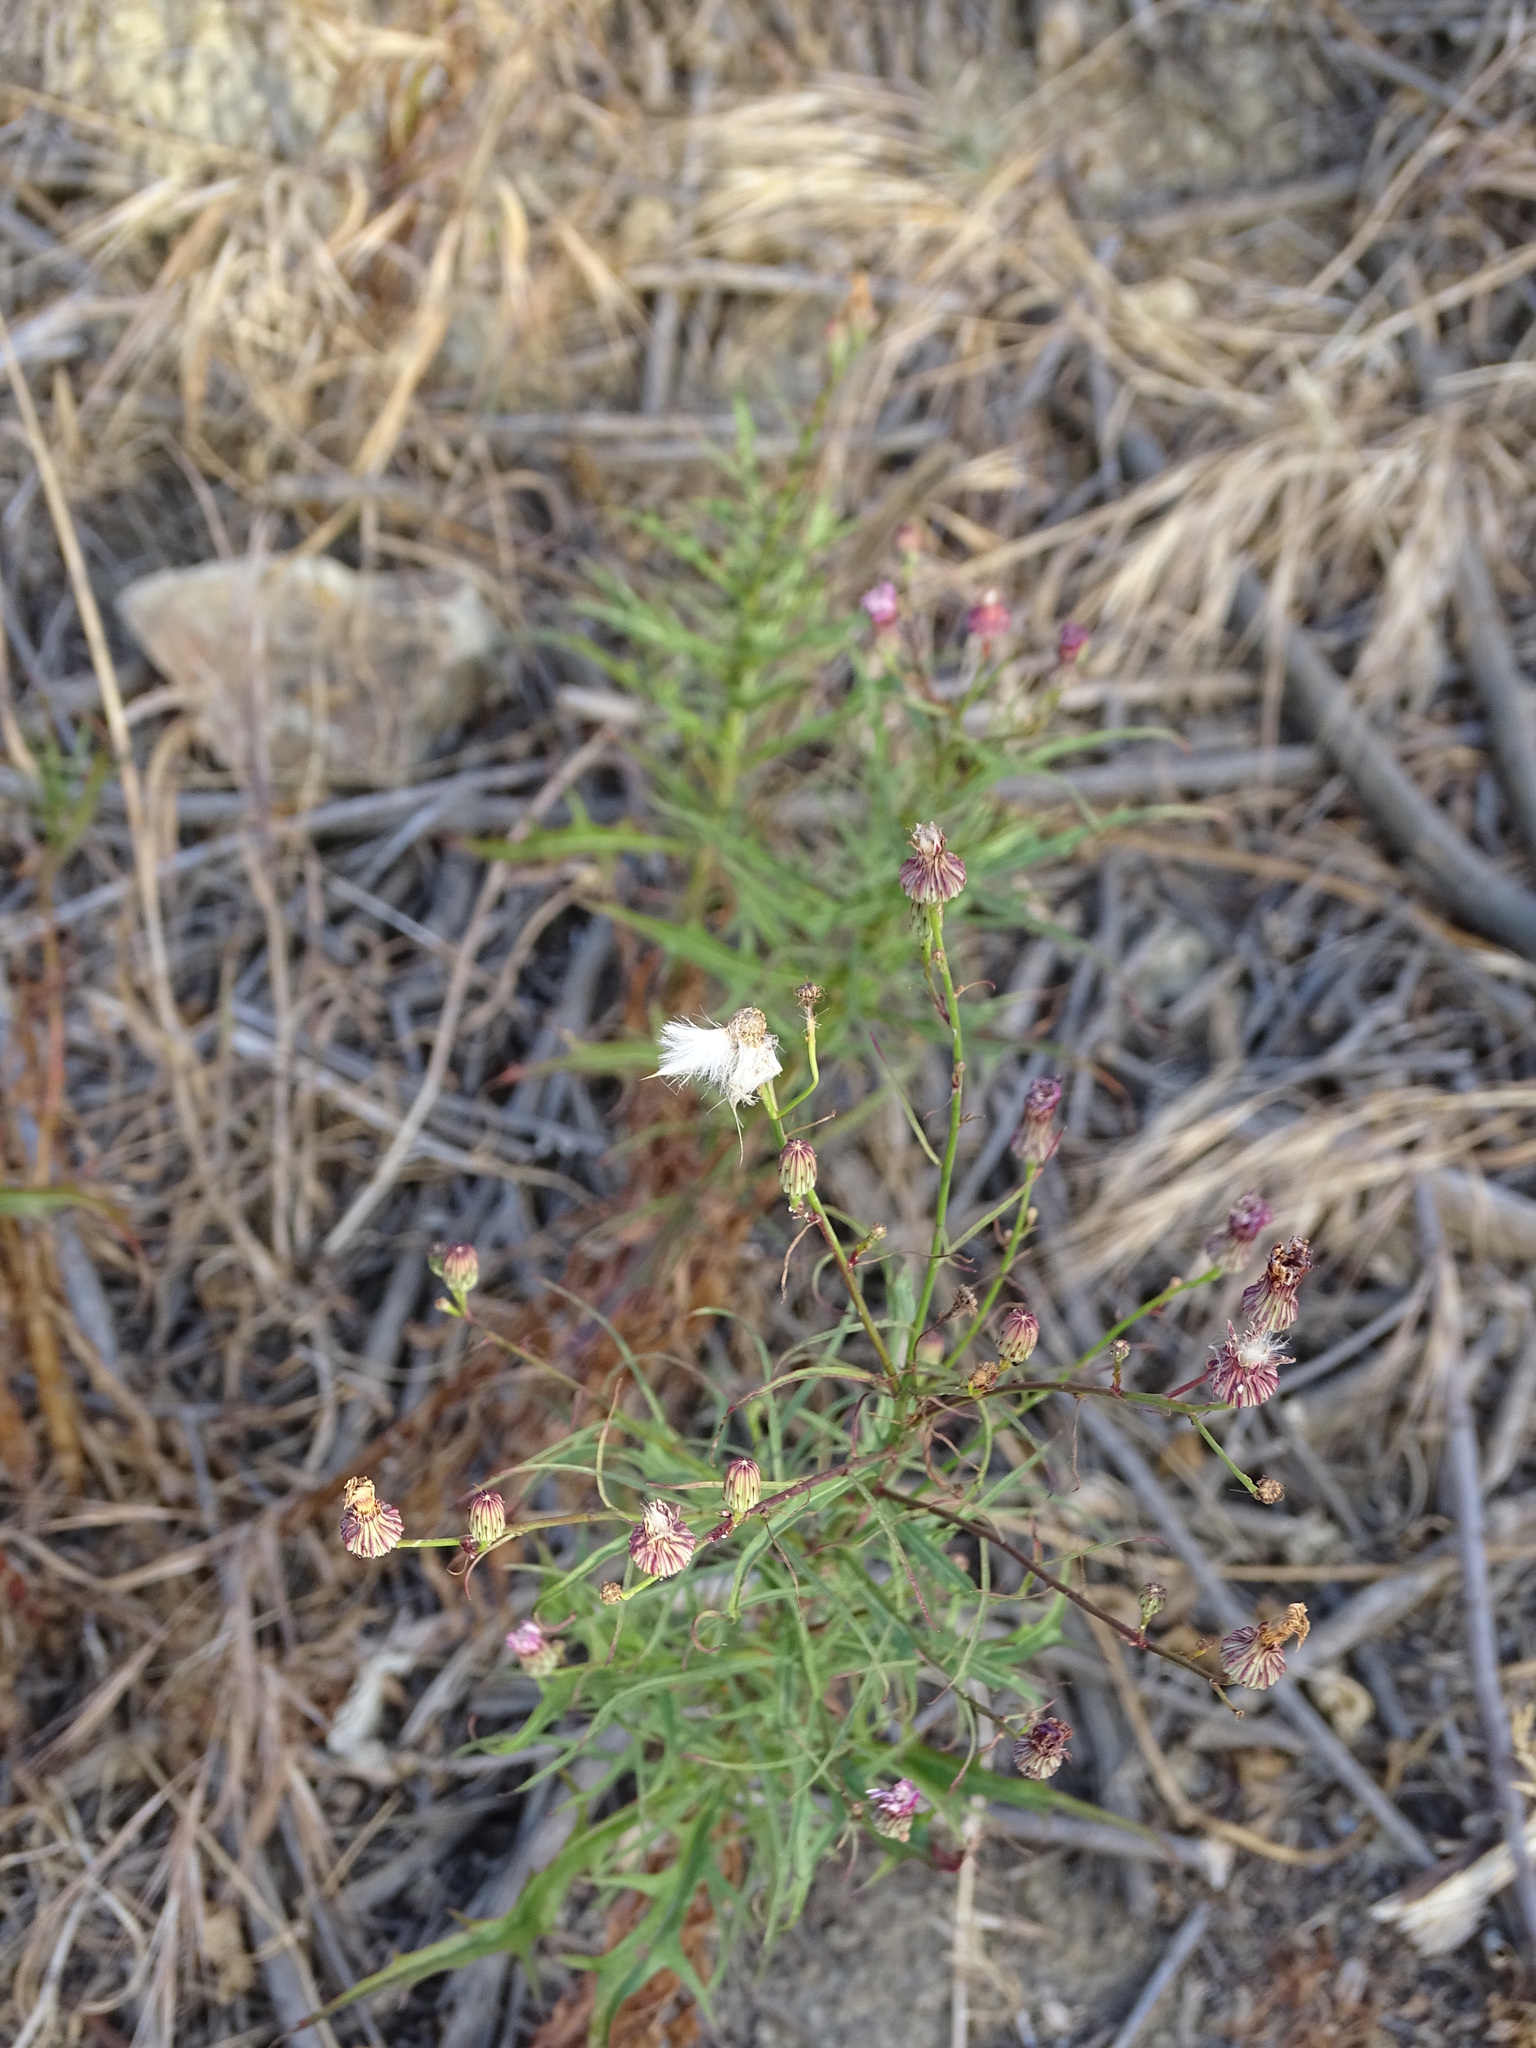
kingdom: Plantae
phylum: Tracheophyta
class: Magnoliopsida
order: Asterales
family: Asteraceae
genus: Malacothrix
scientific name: Malacothrix saxatilis
